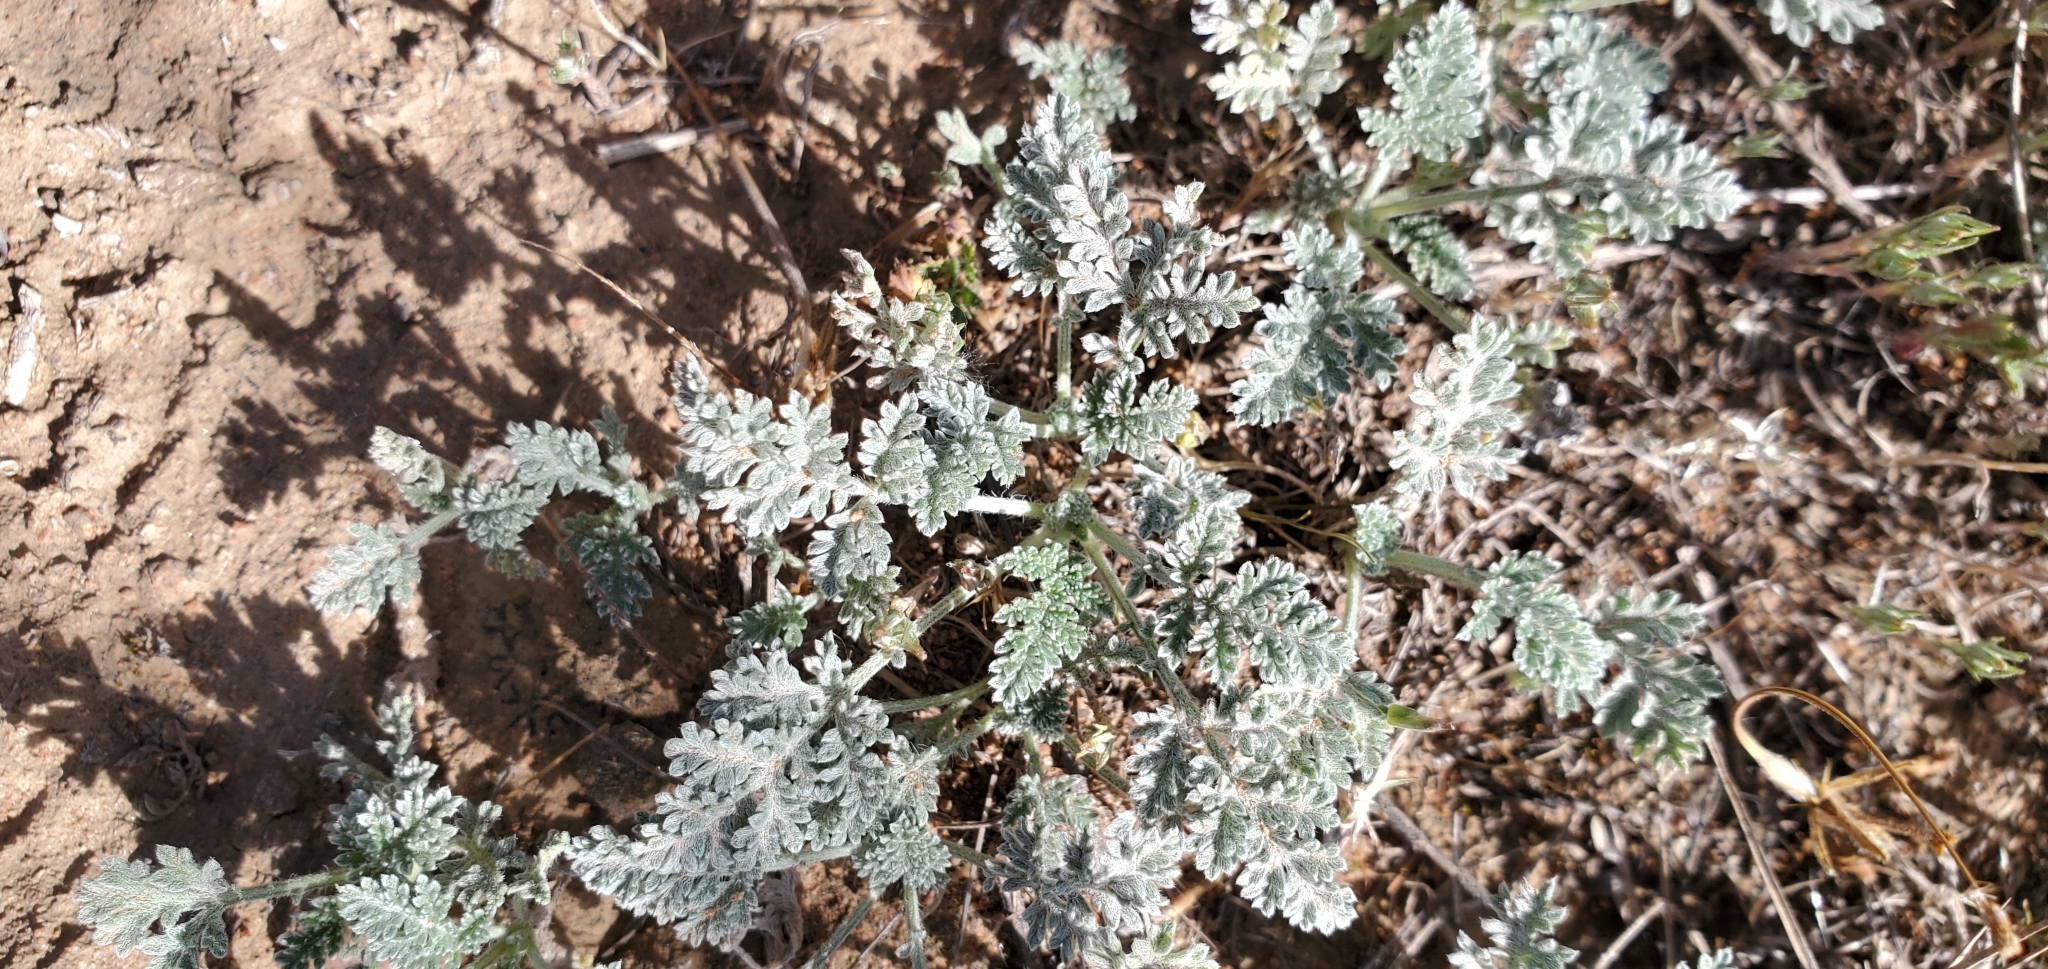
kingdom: Plantae
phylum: Tracheophyta
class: Magnoliopsida
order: Asterales
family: Asteraceae
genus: Ambrosia
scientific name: Ambrosia pumila
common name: San diego ambrosia
